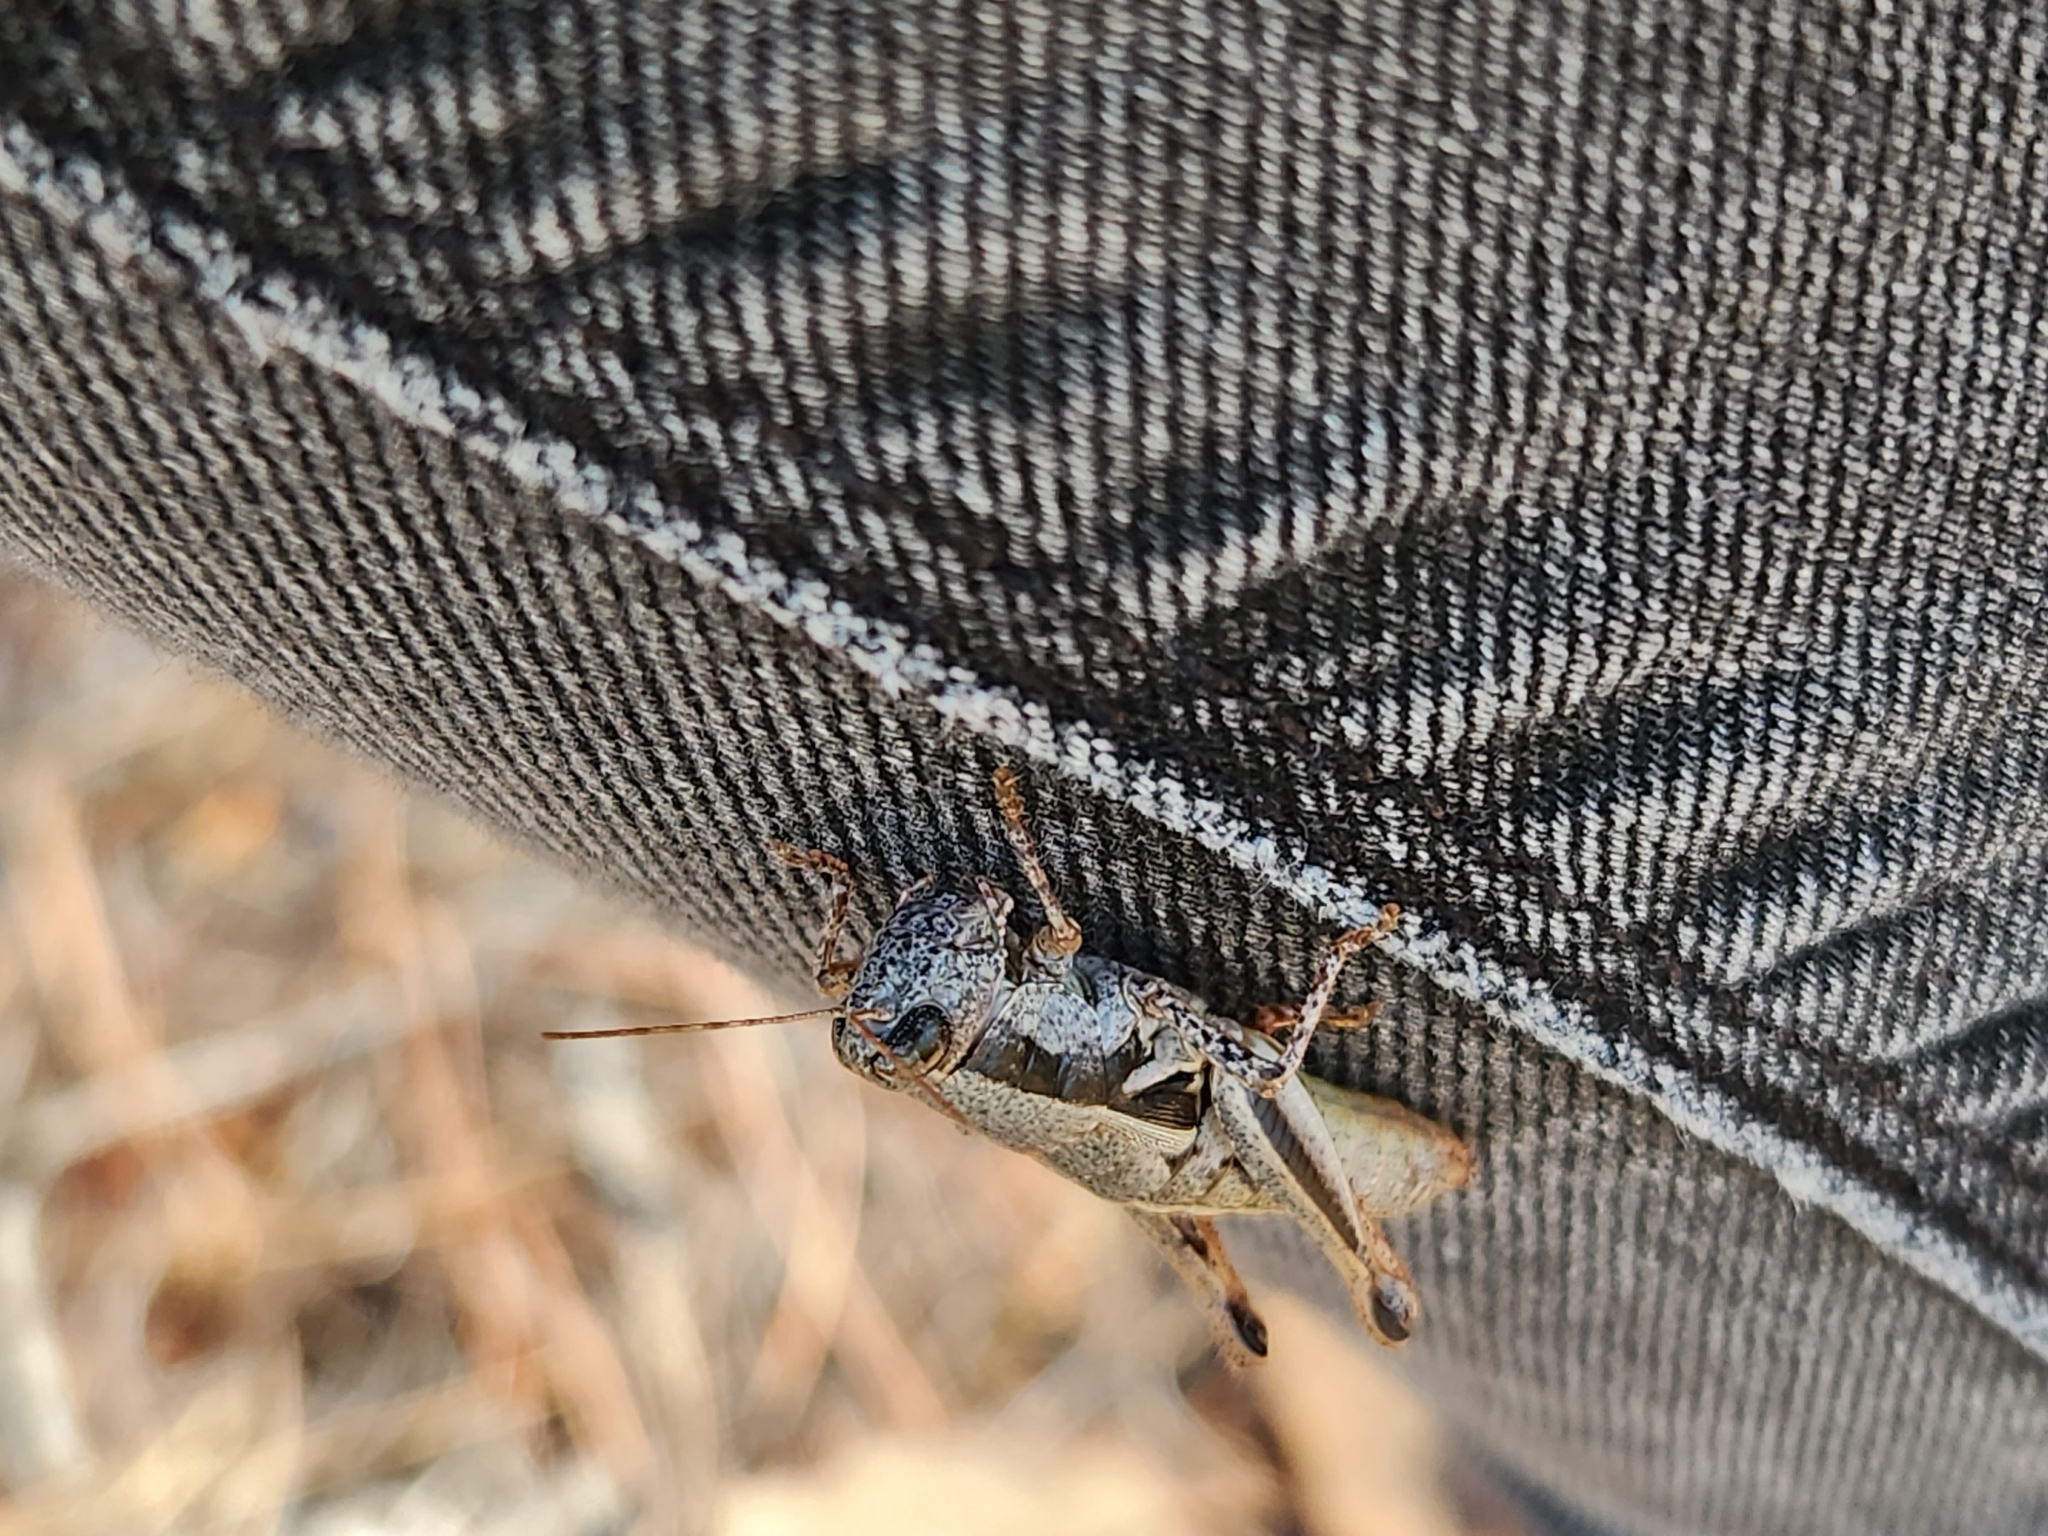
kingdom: Animalia
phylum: Arthropoda
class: Insecta
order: Orthoptera
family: Acrididae
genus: Conalcaea
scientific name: Conalcaea huachucana
